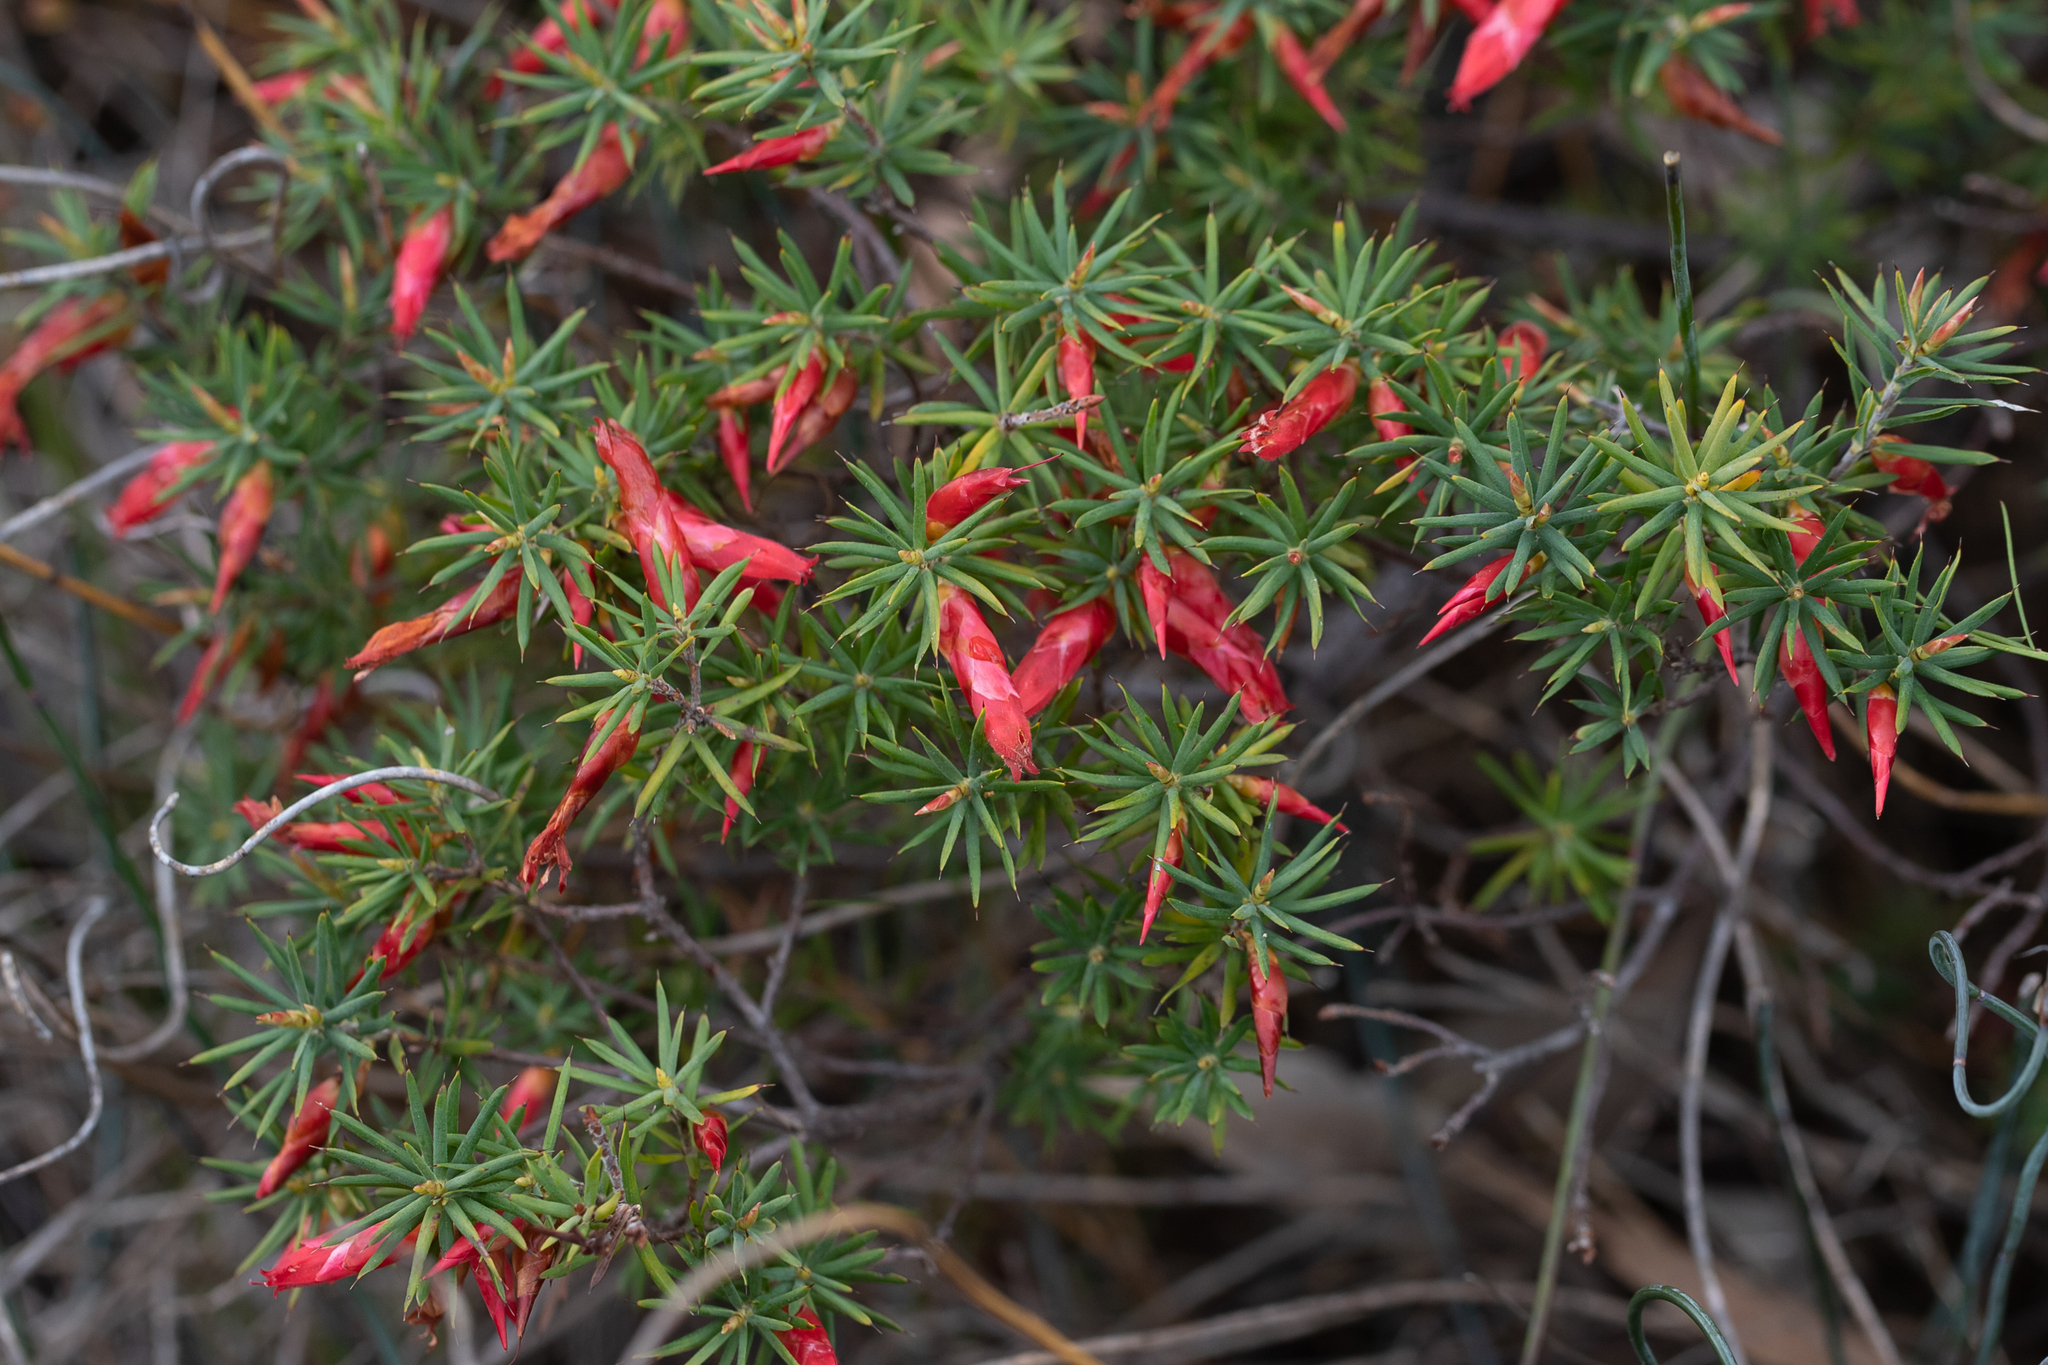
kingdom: Plantae
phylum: Tracheophyta
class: Magnoliopsida
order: Ericales
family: Ericaceae
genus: Stenanthera
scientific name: Stenanthera conostephioides
